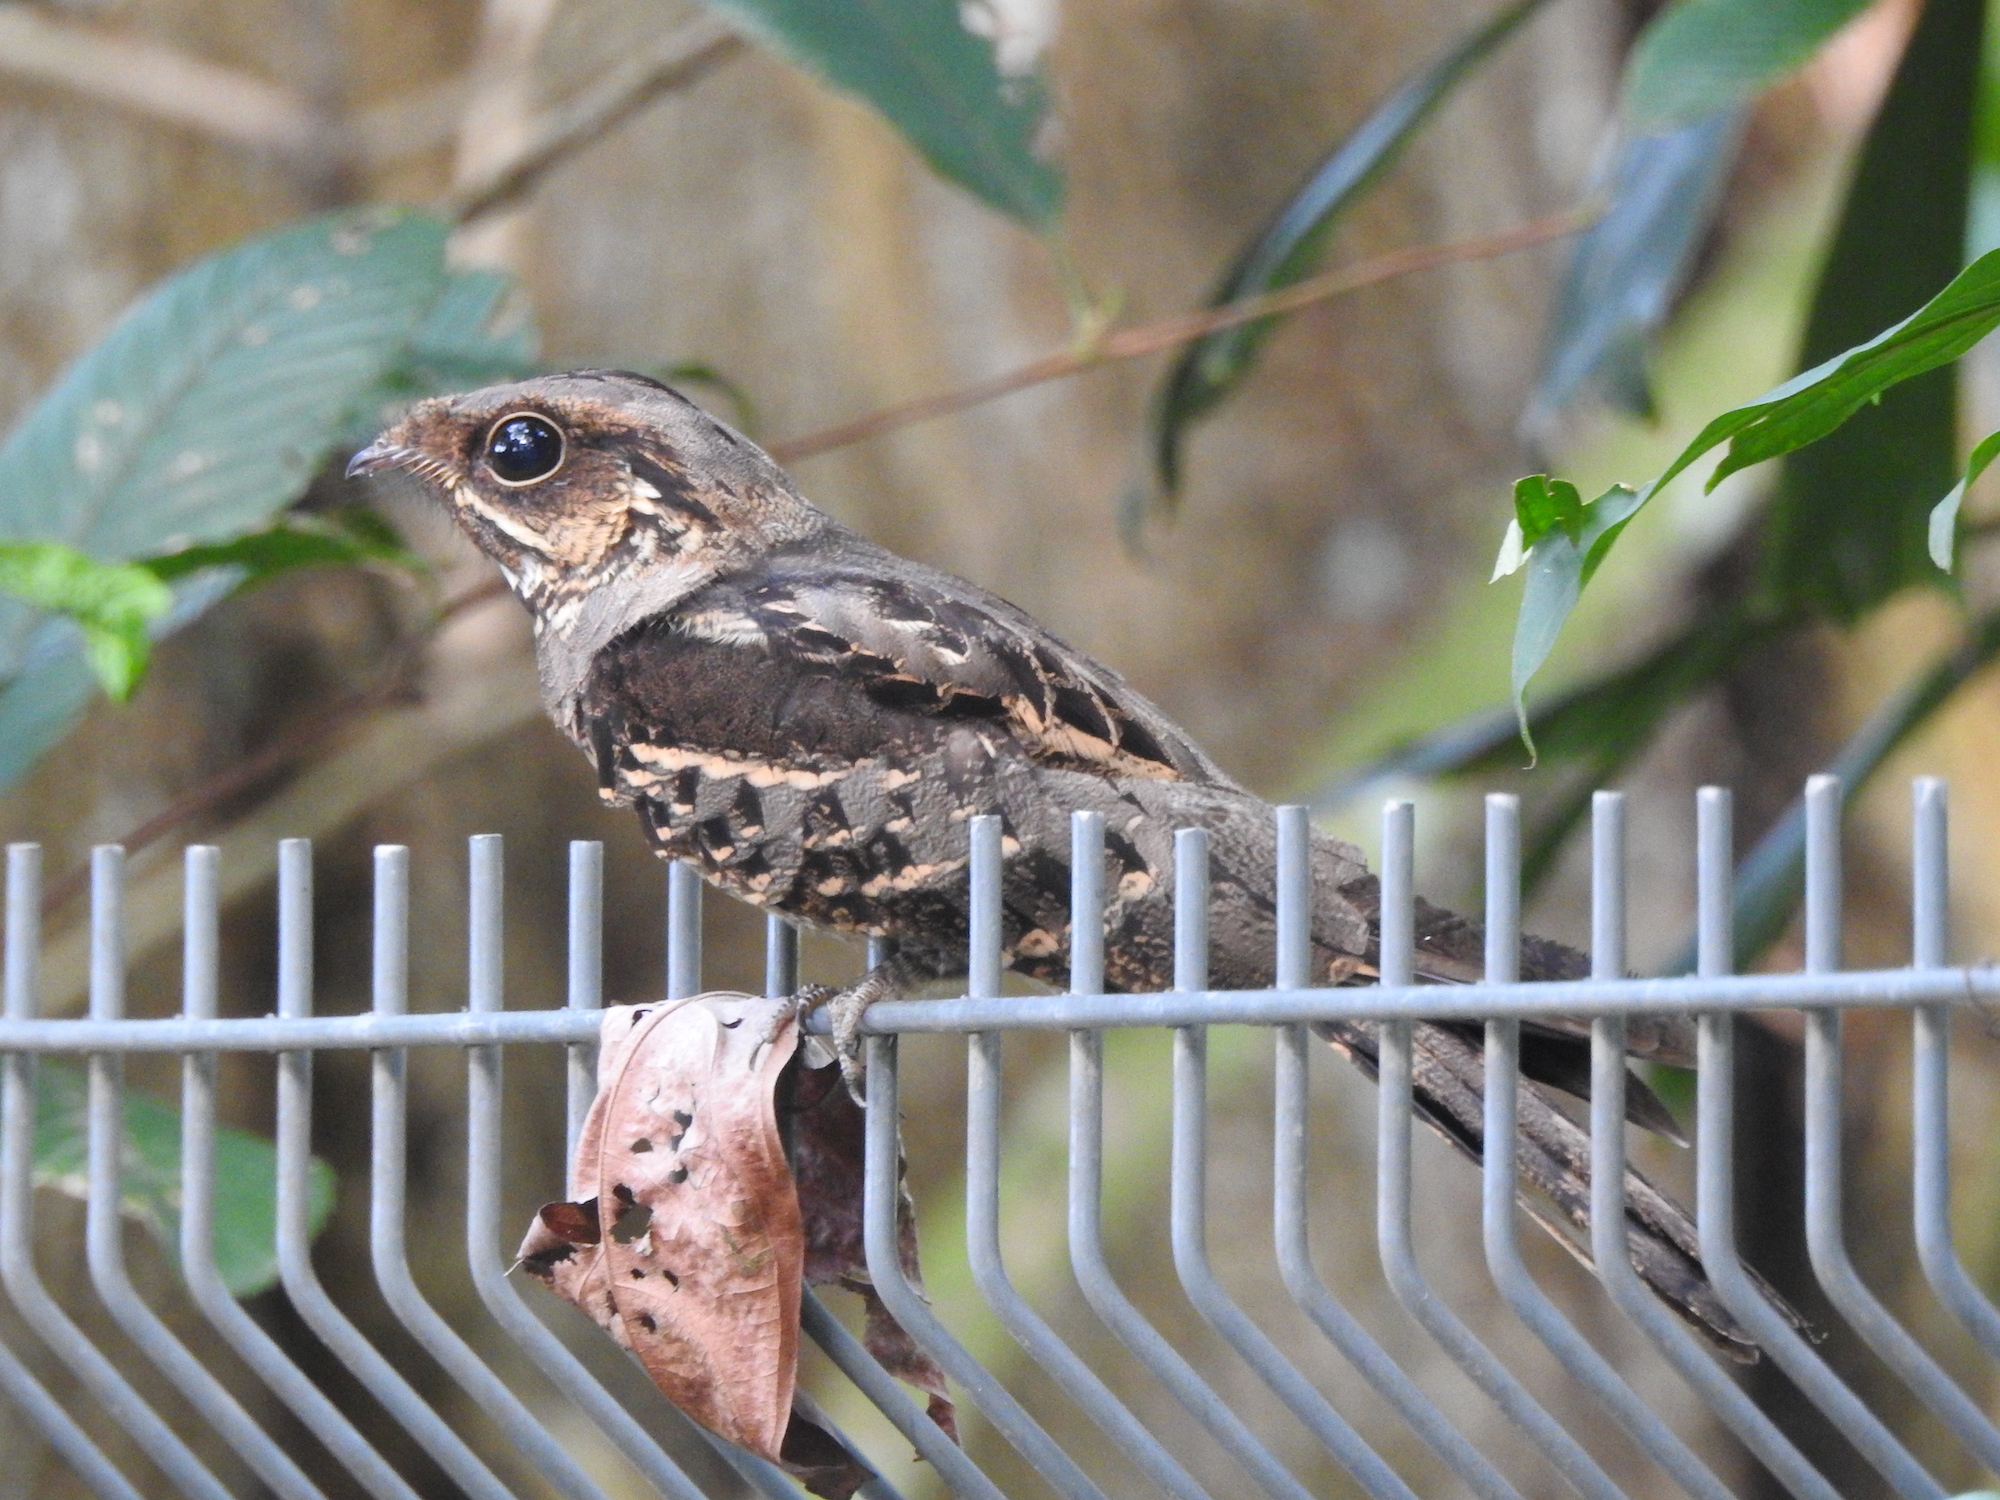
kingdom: Animalia
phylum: Chordata
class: Aves
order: Caprimulgiformes
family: Caprimulgidae
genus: Caprimulgus
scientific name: Caprimulgus macrurus
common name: Large-tailed nightjar
